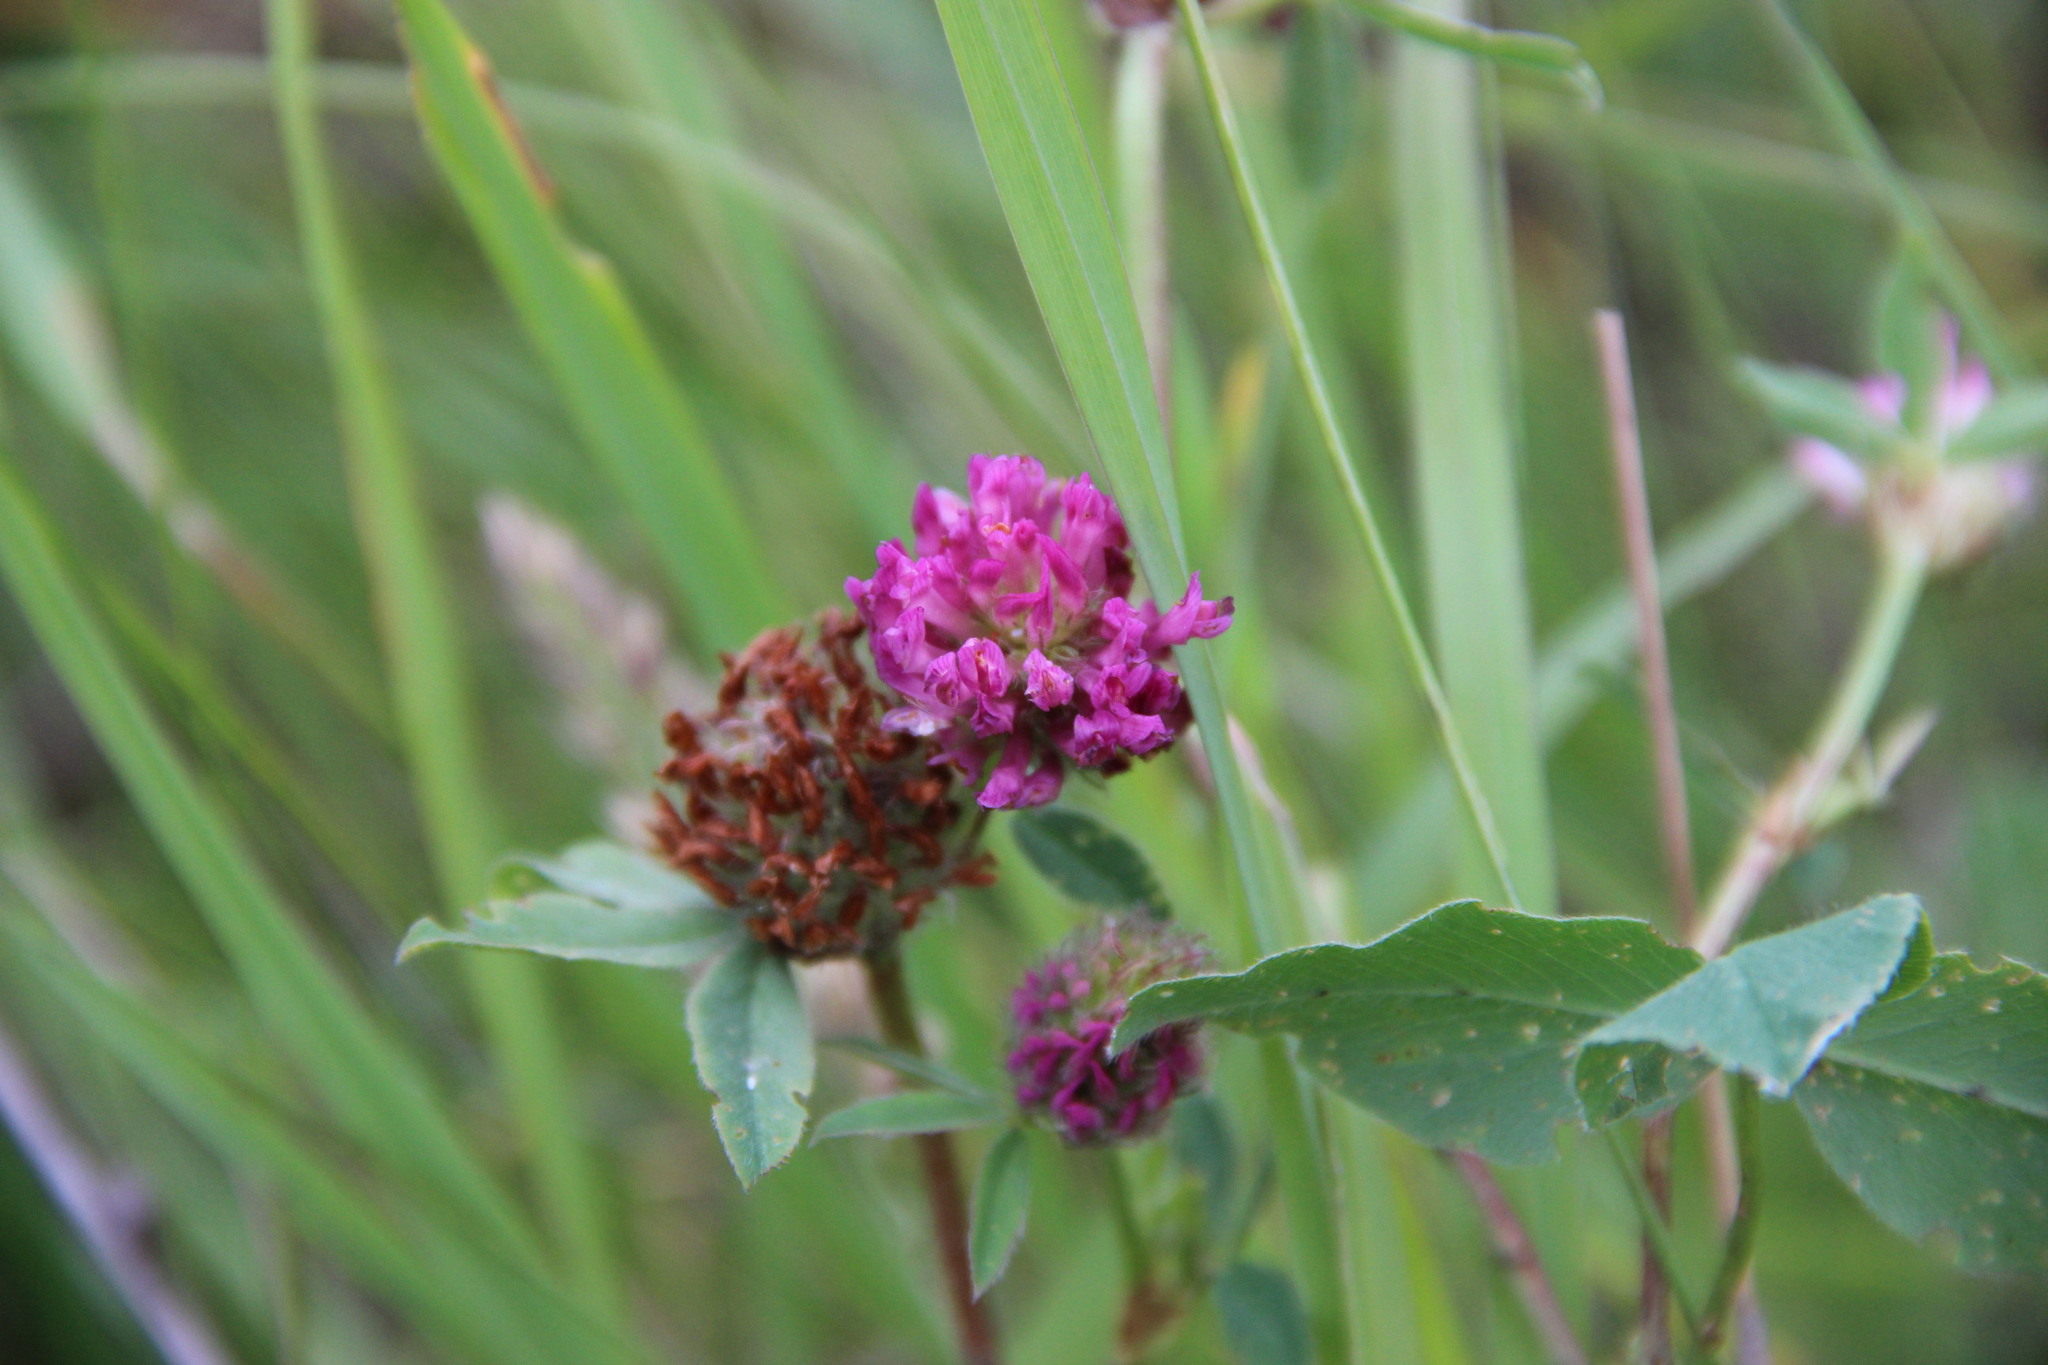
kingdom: Plantae
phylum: Tracheophyta
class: Magnoliopsida
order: Fabales
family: Fabaceae
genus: Trifolium
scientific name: Trifolium pratense
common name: Red clover
